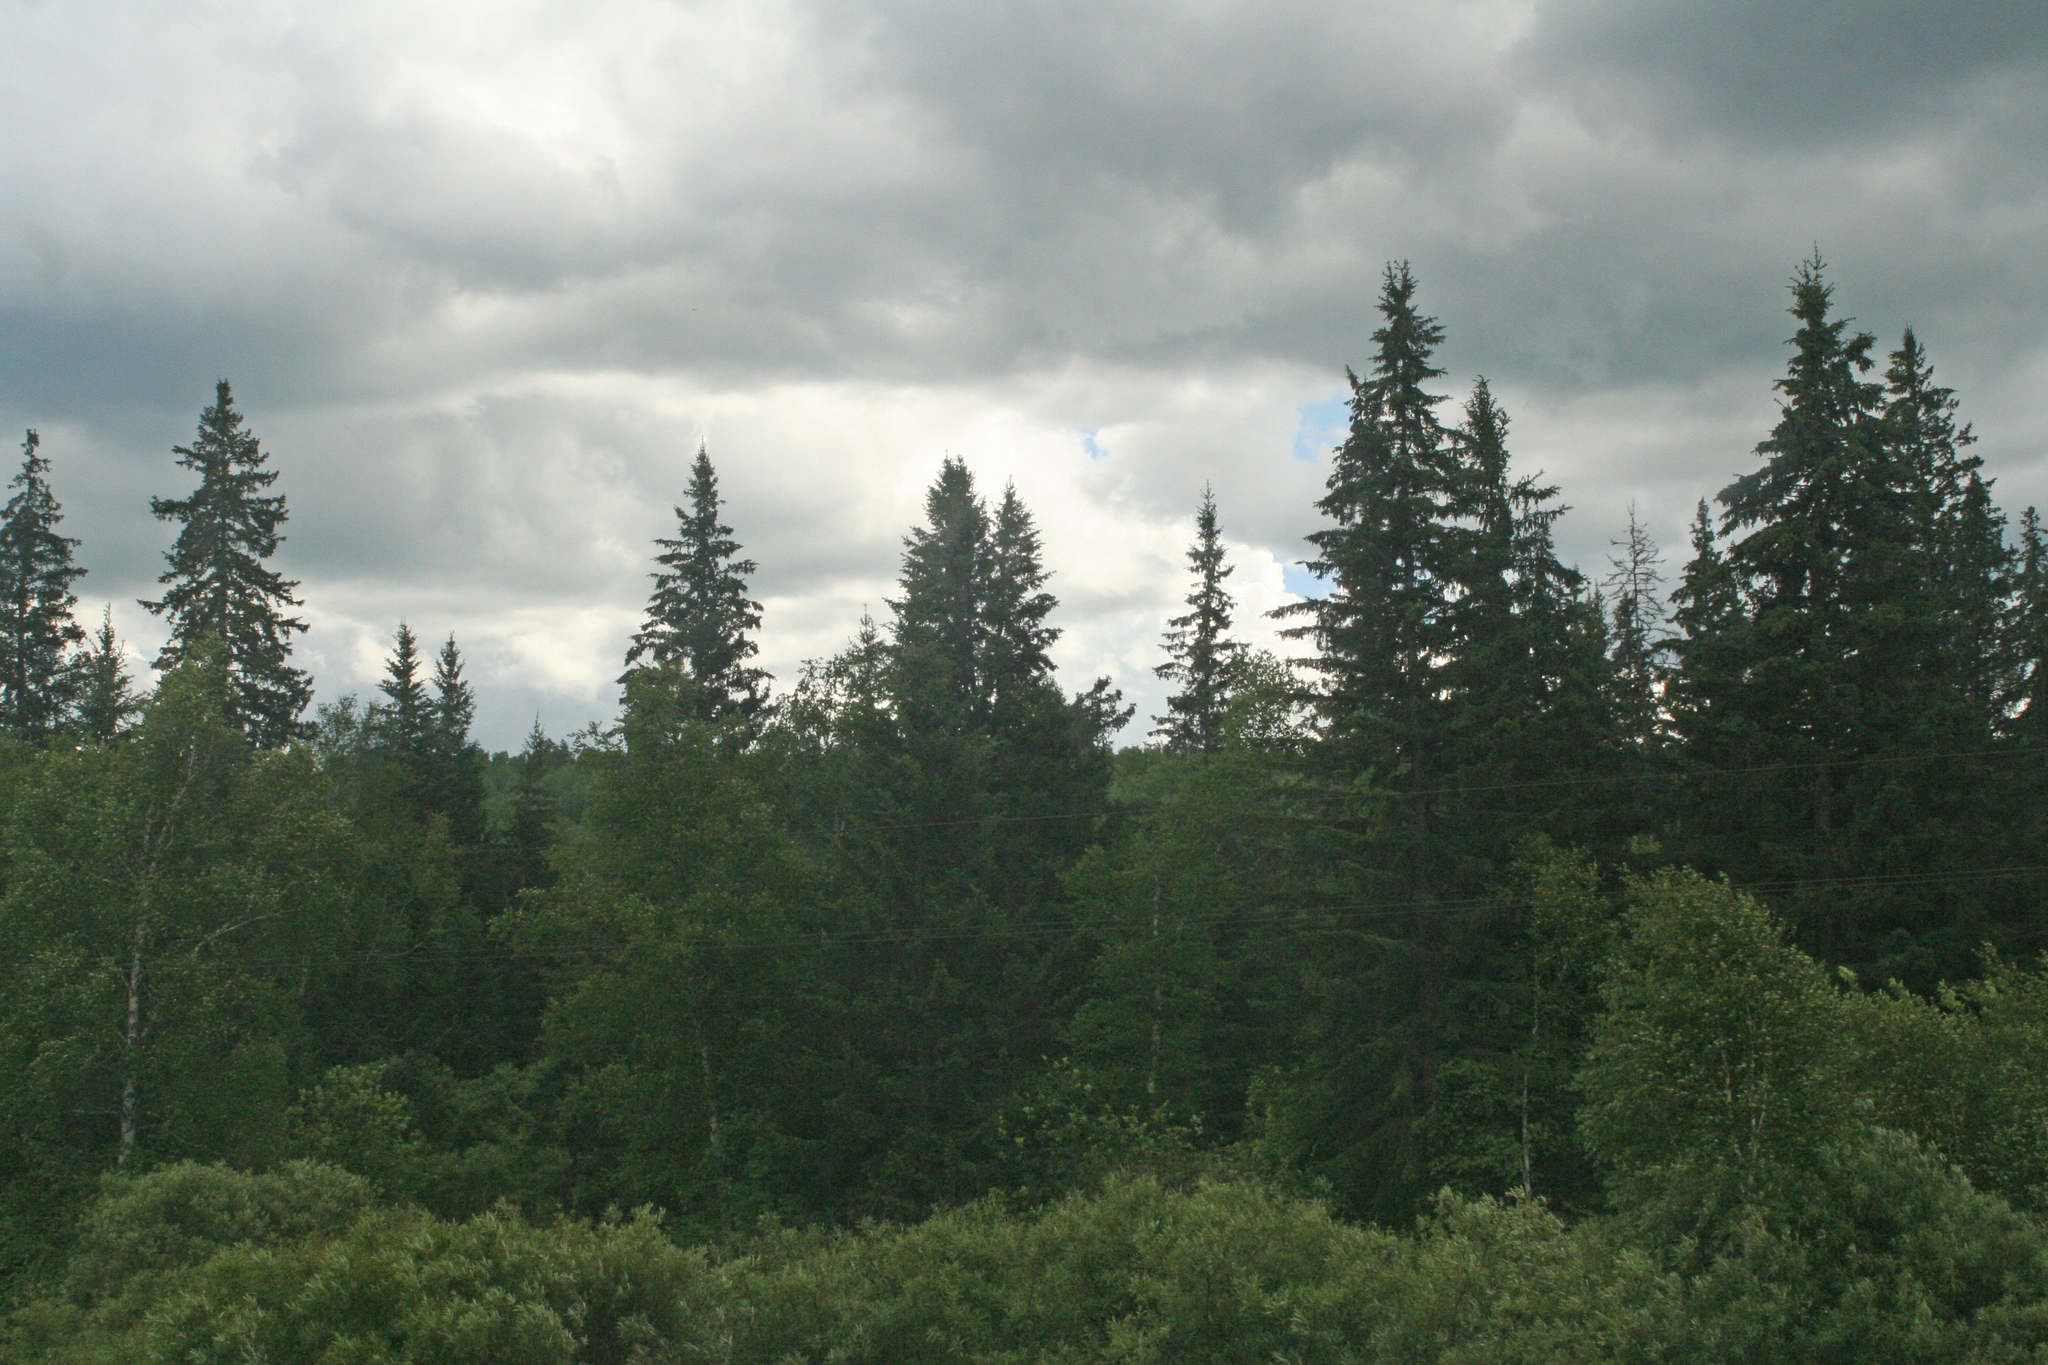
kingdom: Plantae
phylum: Tracheophyta
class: Pinopsida
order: Pinales
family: Pinaceae
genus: Picea
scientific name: Picea obovata
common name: Siberian spruce
